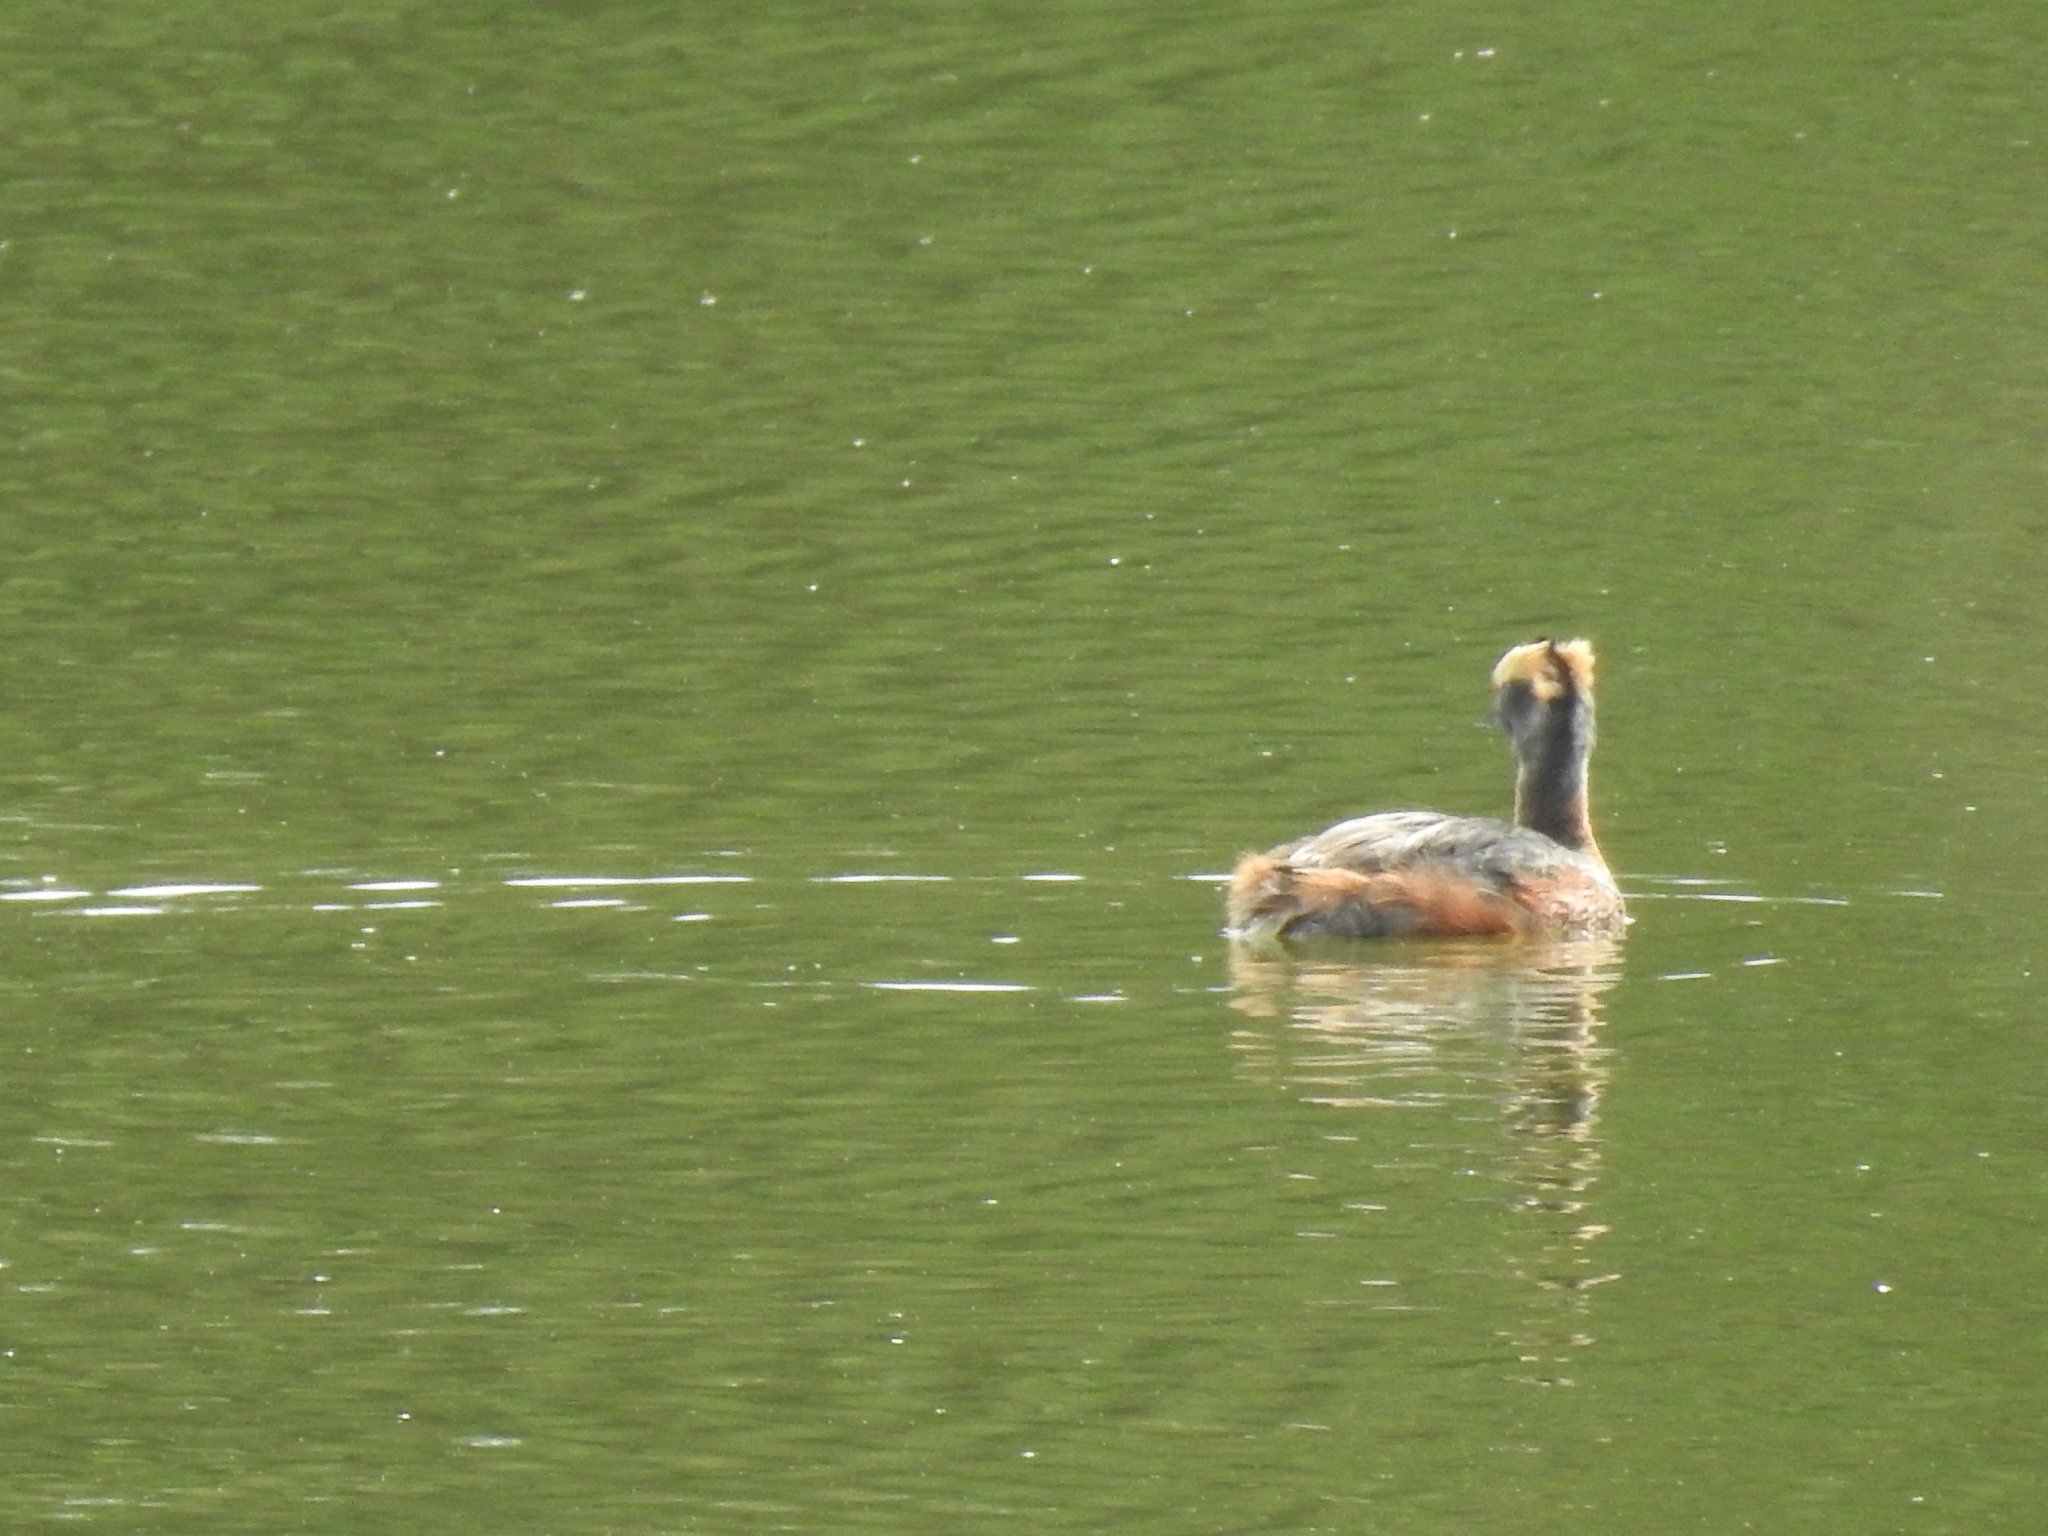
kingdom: Animalia
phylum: Chordata
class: Aves
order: Podicipediformes
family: Podicipedidae
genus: Podiceps
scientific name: Podiceps auritus
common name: Horned grebe
